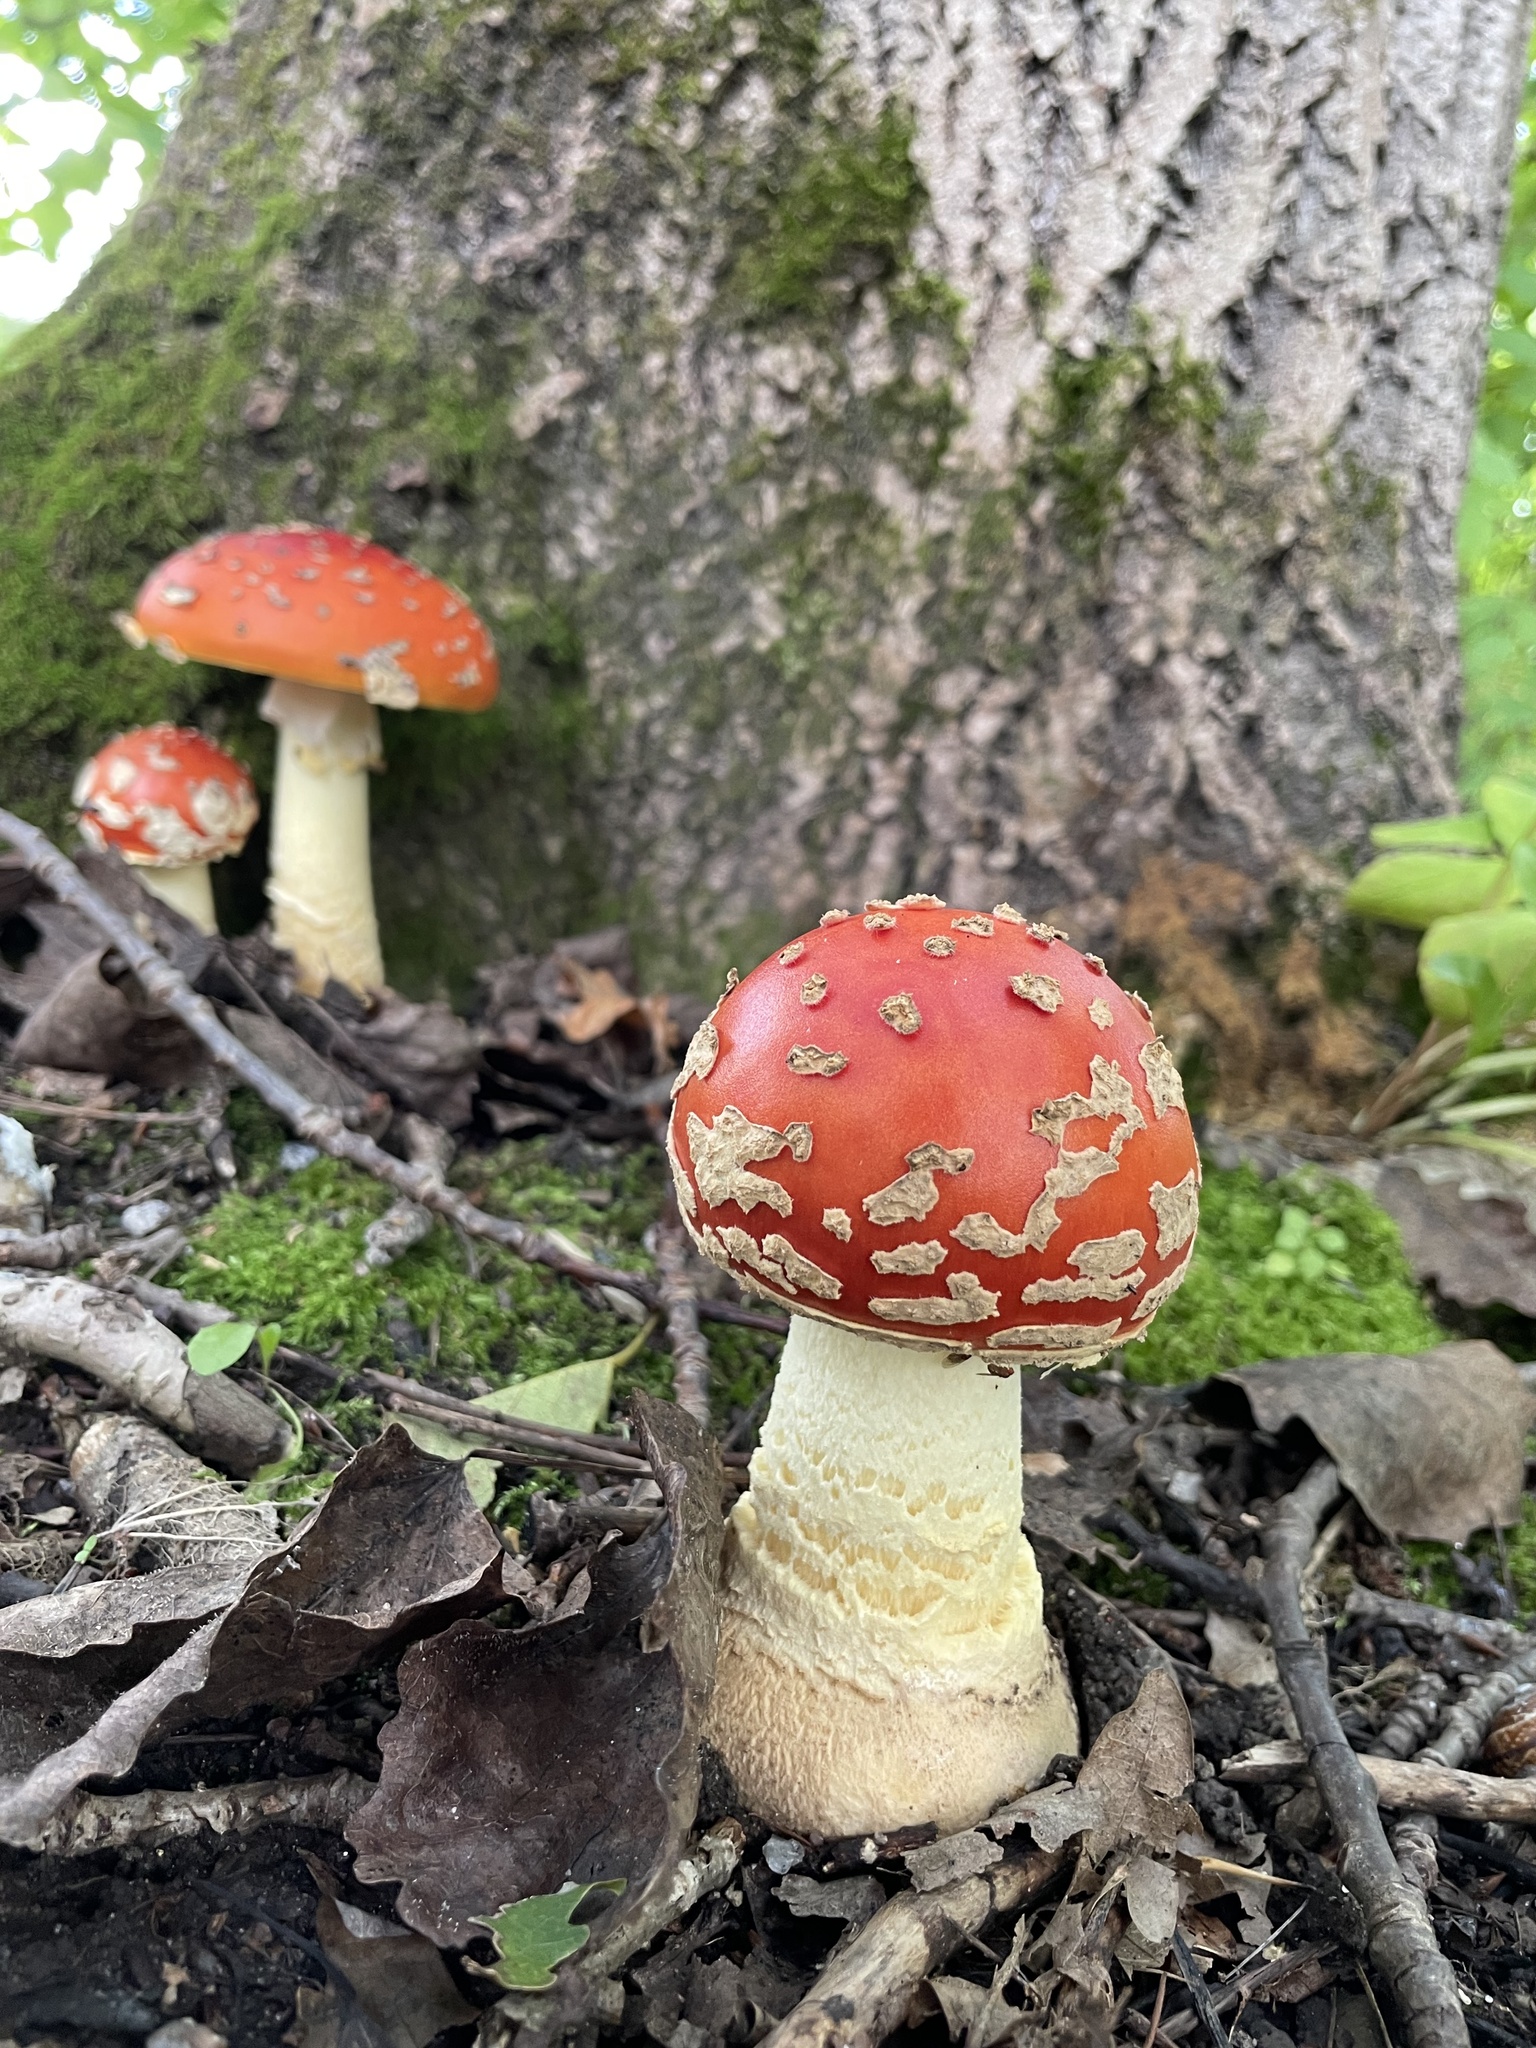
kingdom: Fungi
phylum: Basidiomycota
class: Agaricomycetes
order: Agaricales
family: Amanitaceae
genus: Amanita
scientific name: Amanita muscaria
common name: Fly agaric
